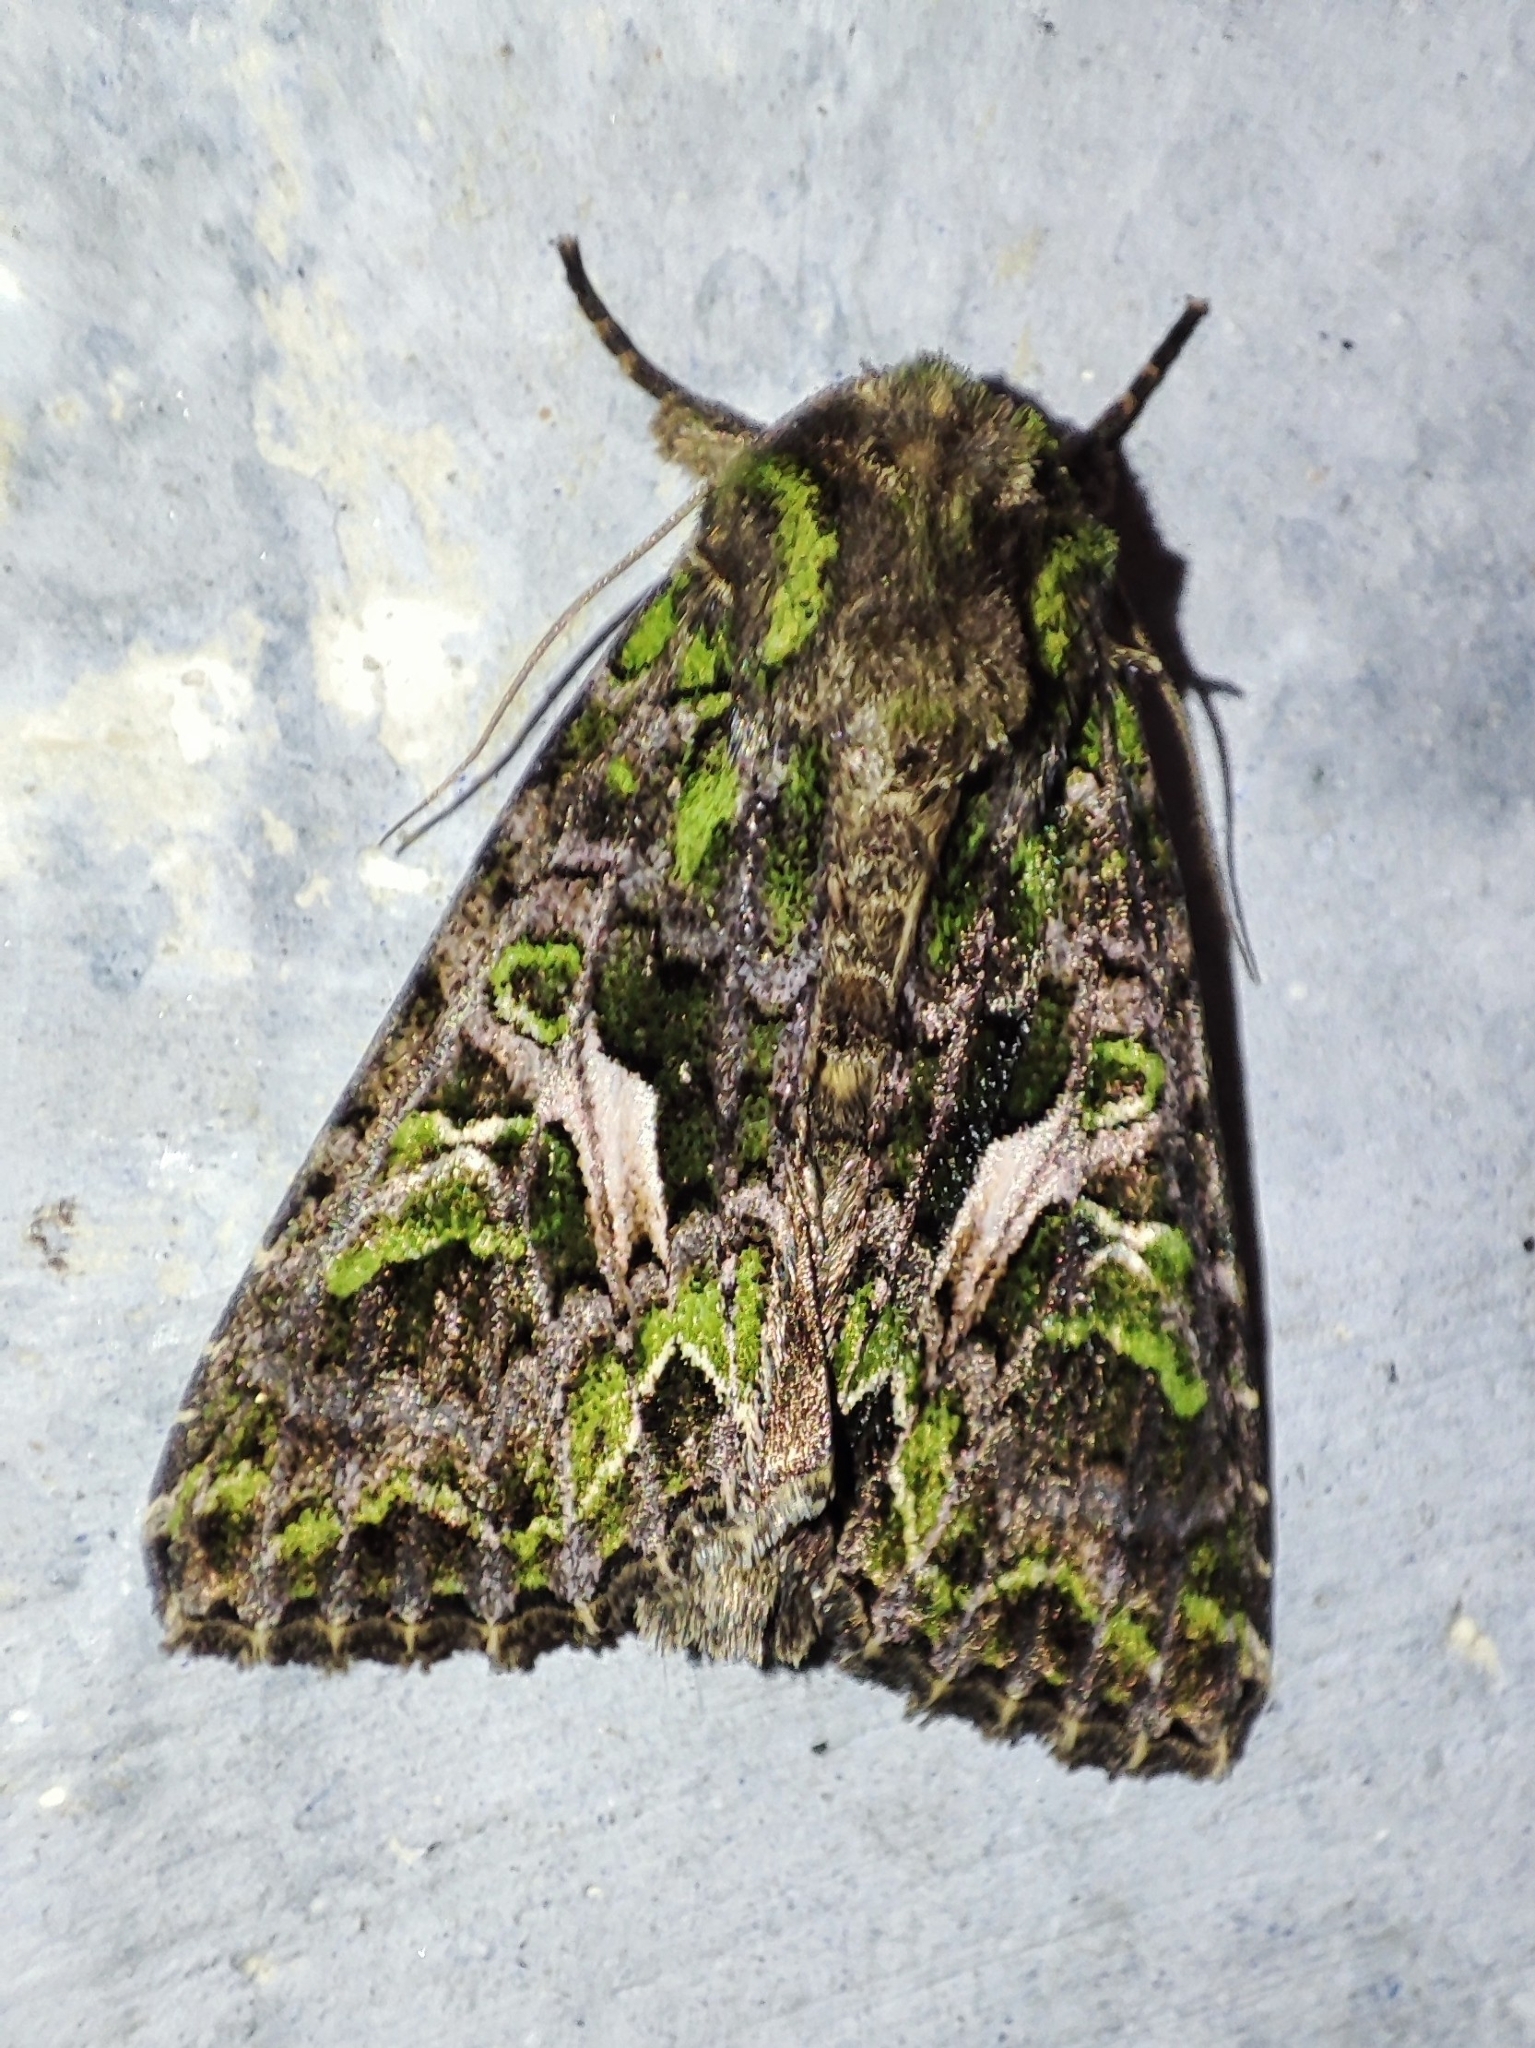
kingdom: Animalia
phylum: Arthropoda
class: Insecta
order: Lepidoptera
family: Noctuidae
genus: Trachea
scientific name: Trachea atriplicis
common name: Orache moth
